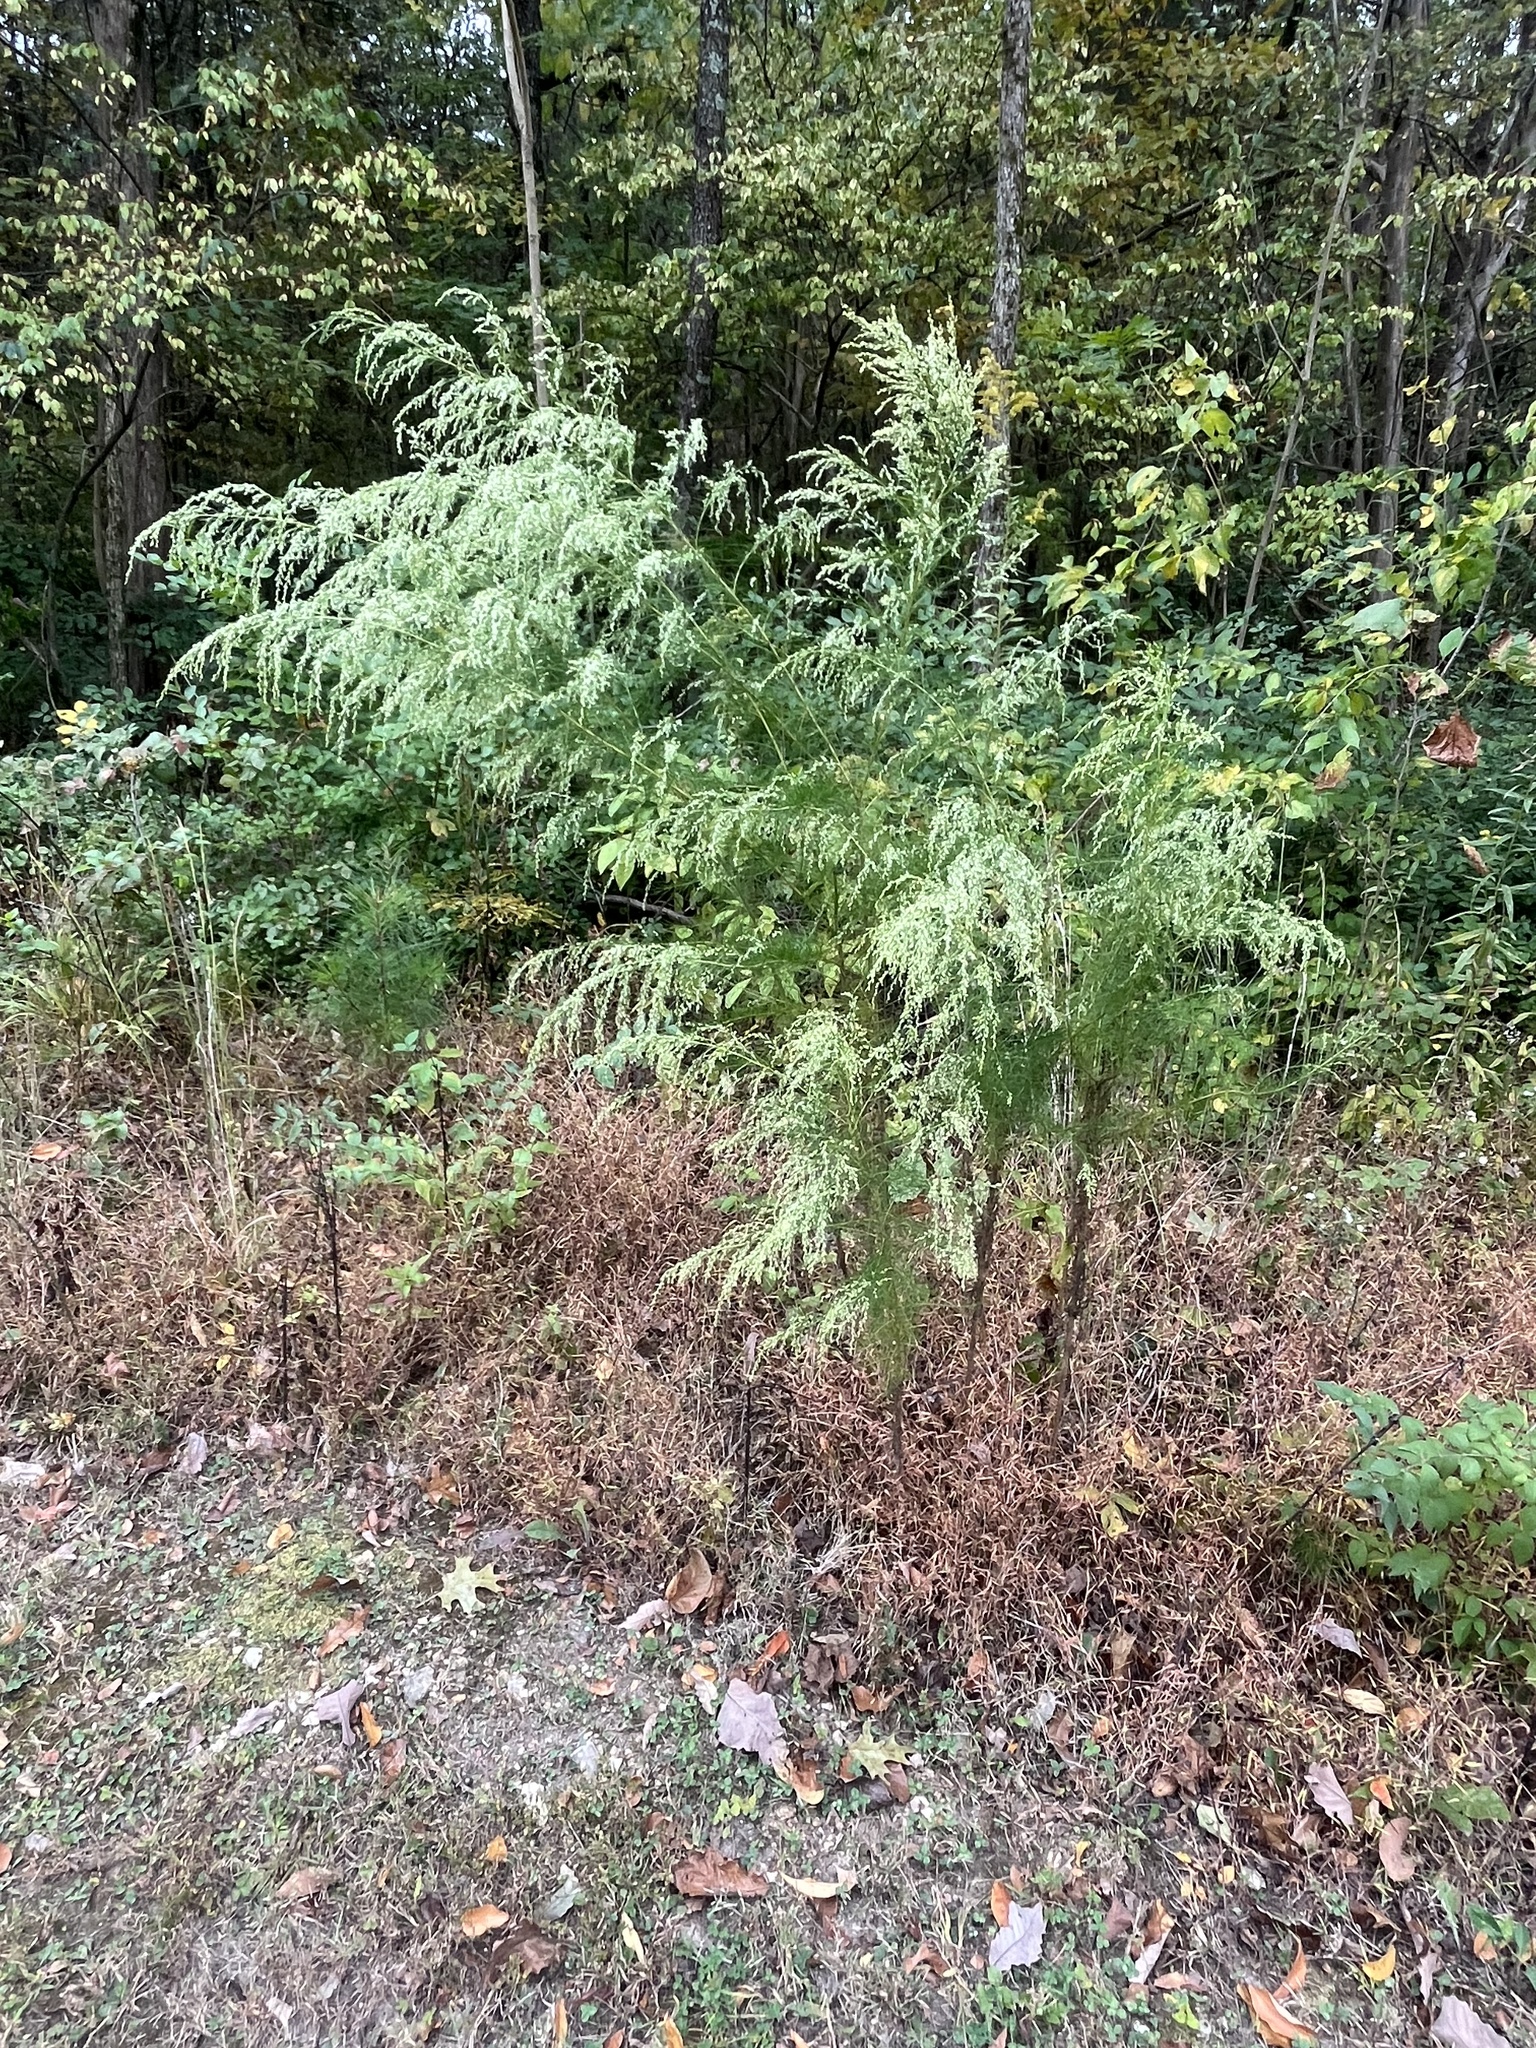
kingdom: Plantae
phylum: Tracheophyta
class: Magnoliopsida
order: Asterales
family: Asteraceae
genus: Eupatorium
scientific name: Eupatorium capillifolium
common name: Dog-fennel
